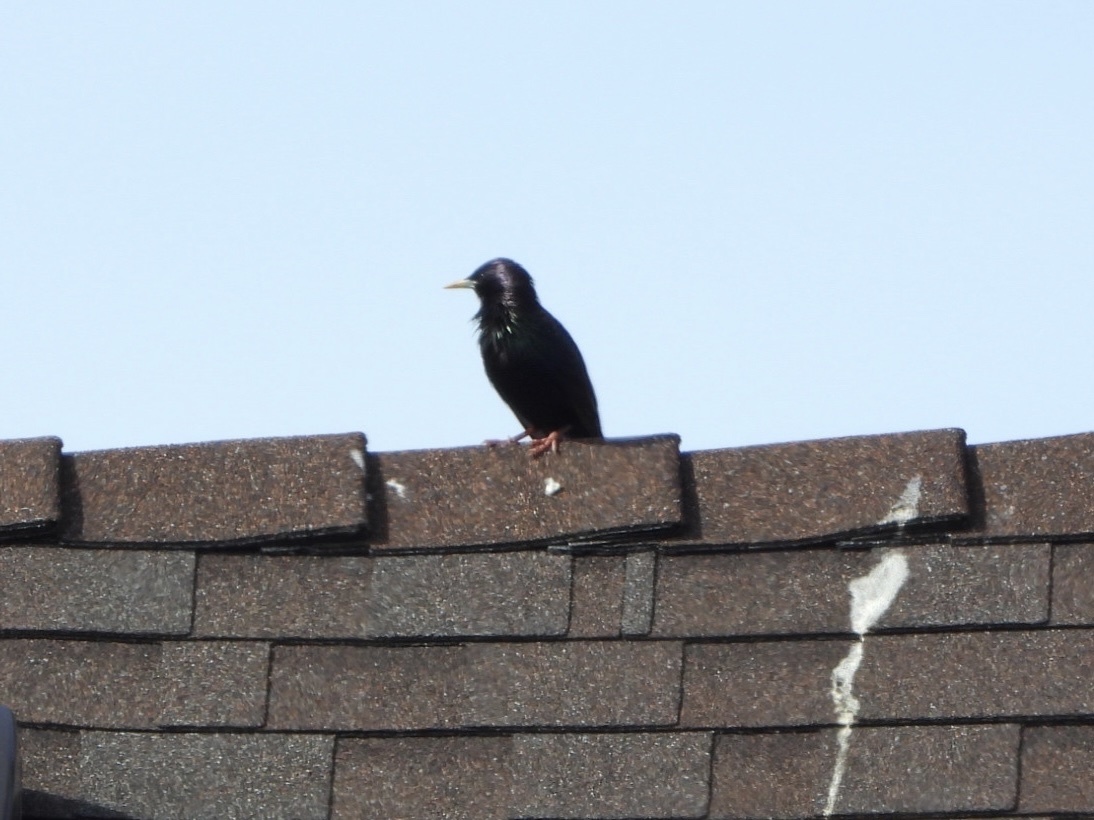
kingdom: Animalia
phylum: Chordata
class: Aves
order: Passeriformes
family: Sturnidae
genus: Sturnus
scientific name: Sturnus vulgaris
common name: Common starling
